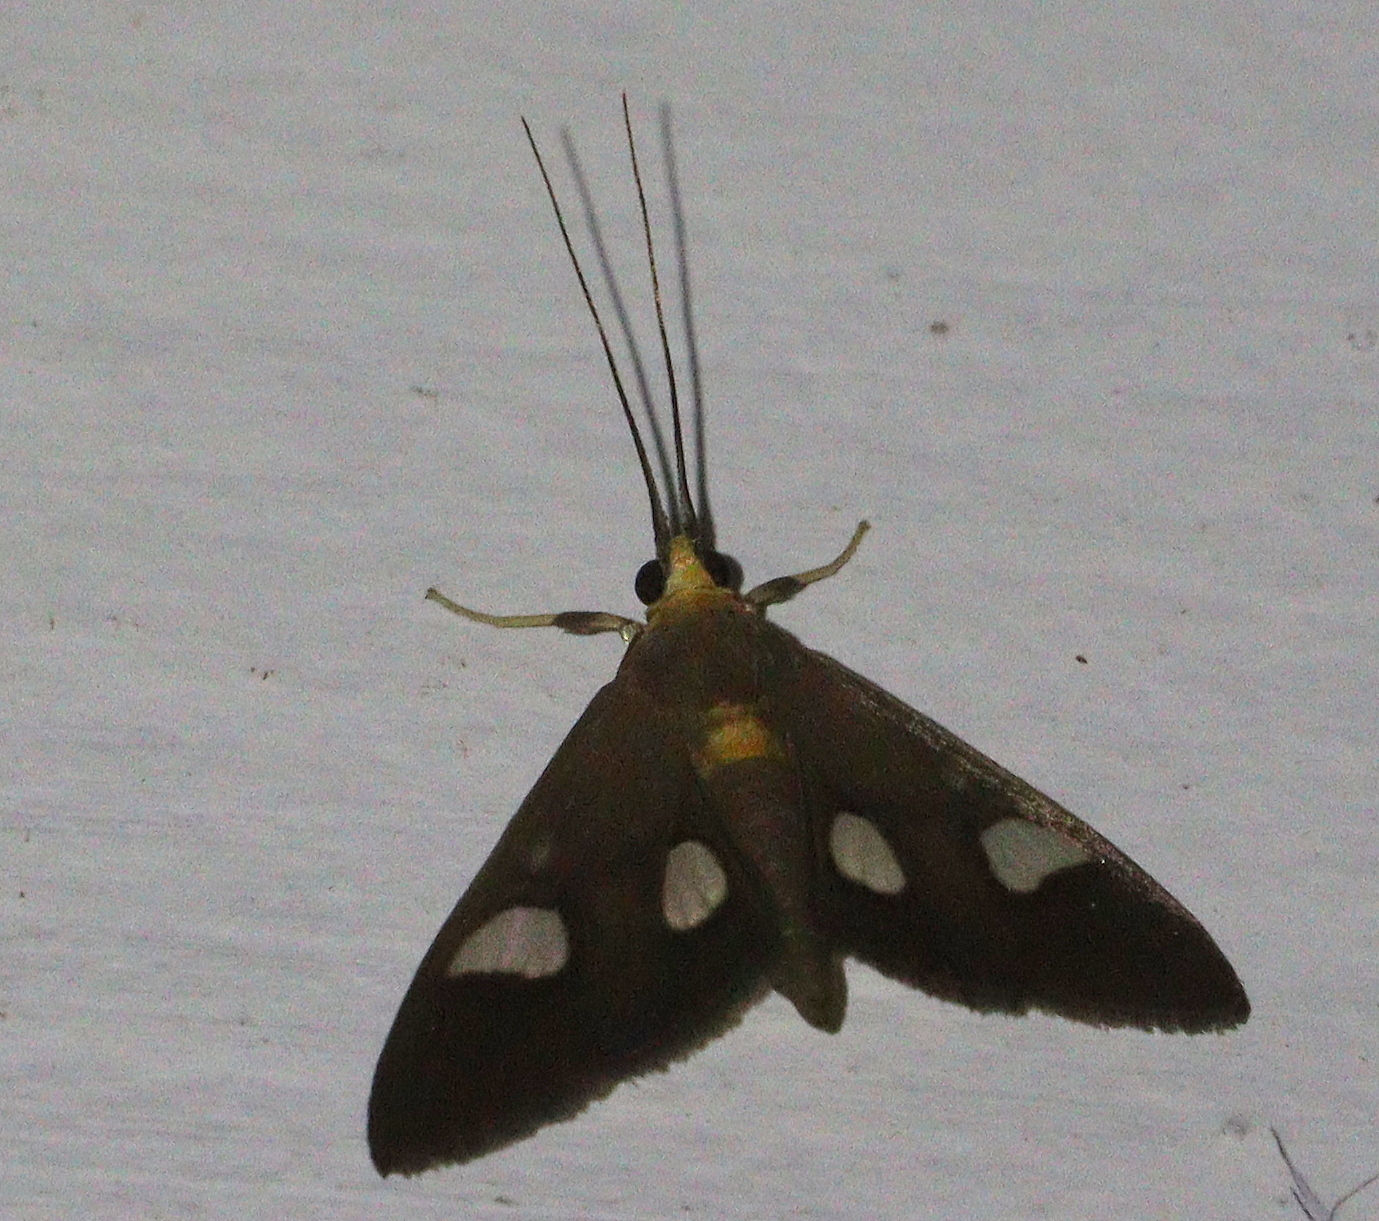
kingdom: Animalia
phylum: Arthropoda
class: Insecta
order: Lepidoptera
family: Crambidae
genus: Ulopeza
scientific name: Ulopeza flavicepsalis
